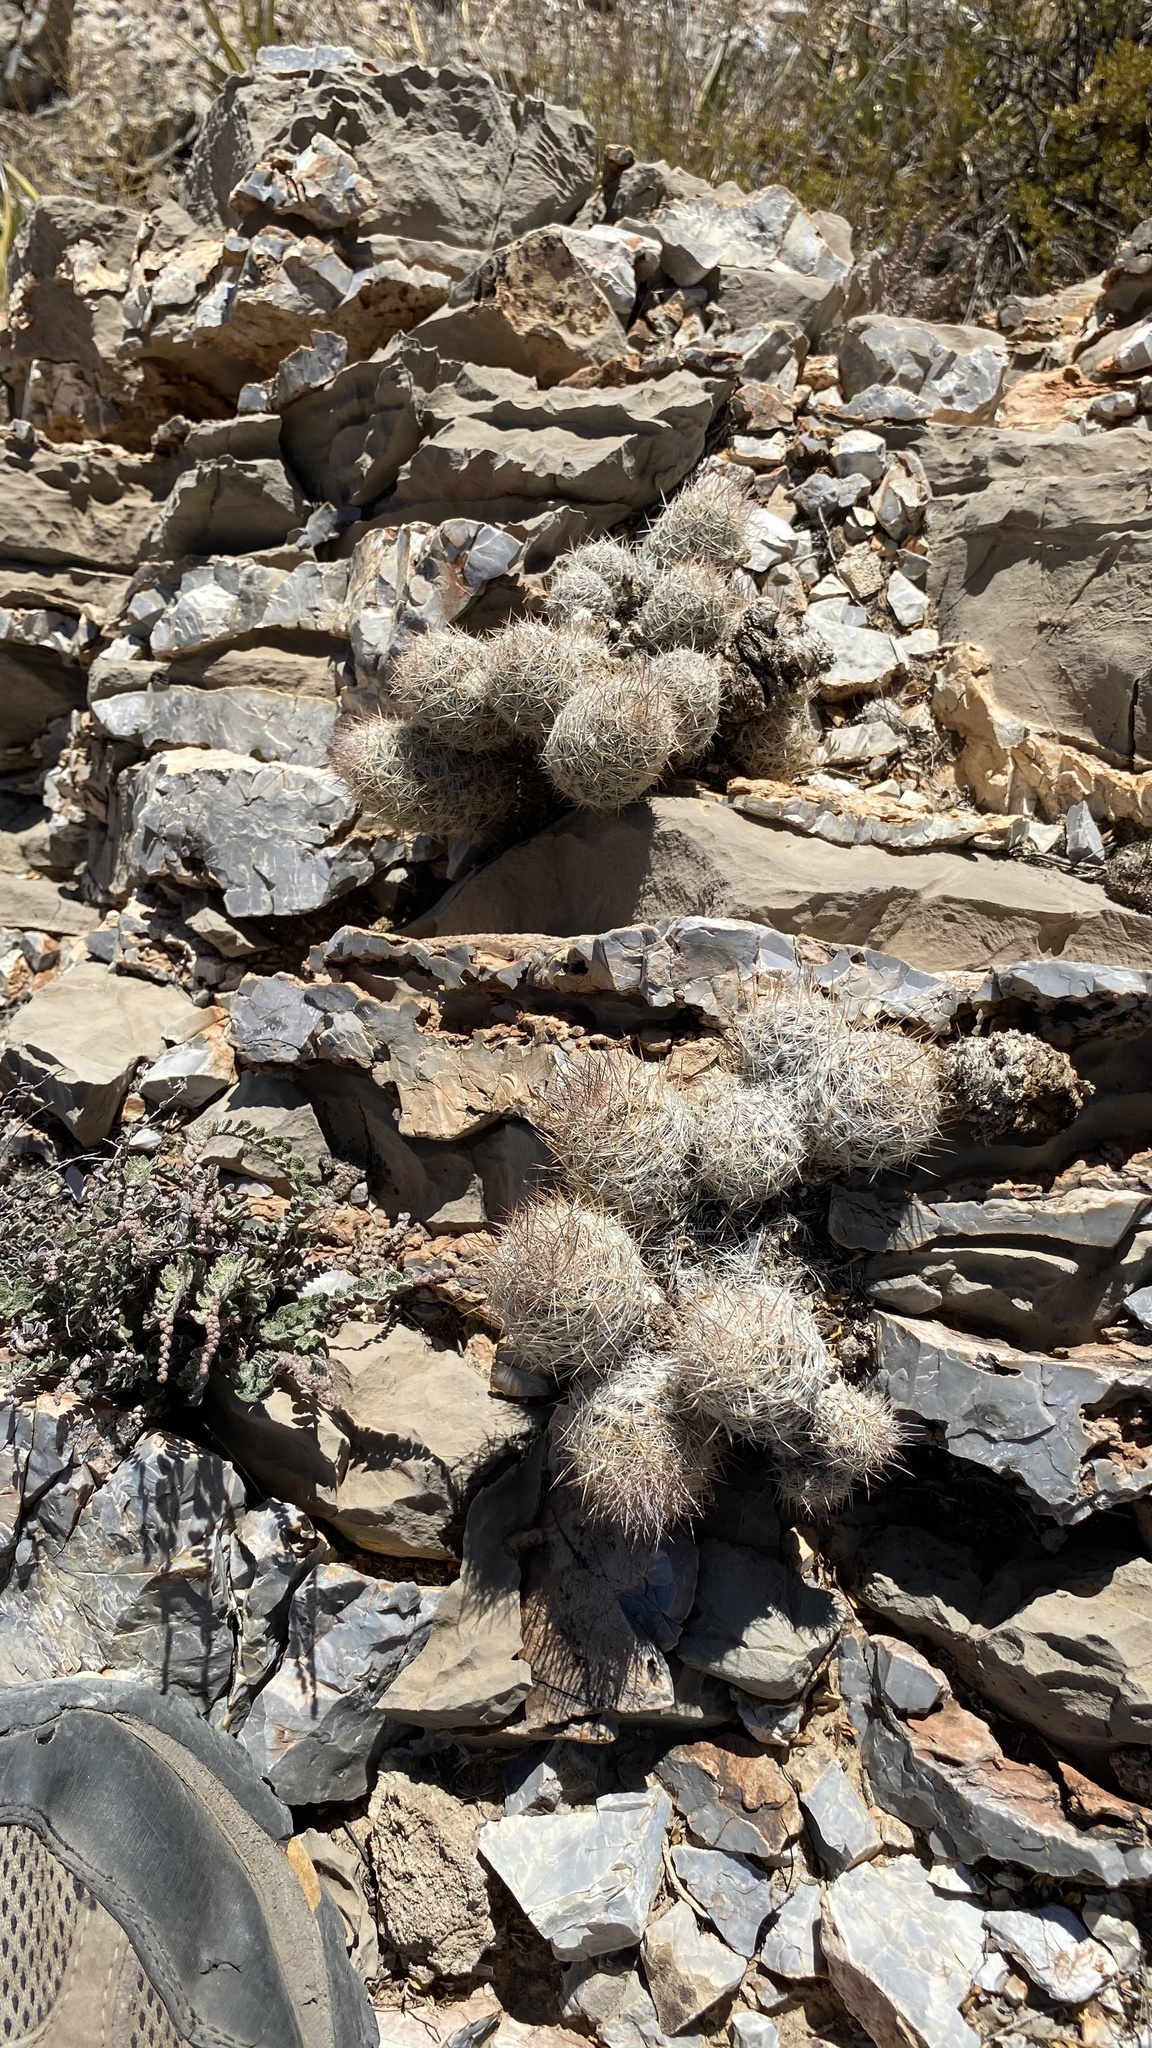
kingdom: Plantae
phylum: Tracheophyta
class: Magnoliopsida
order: Caryophyllales
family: Cactaceae
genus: Pelecyphora
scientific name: Pelecyphora tuberculosa
